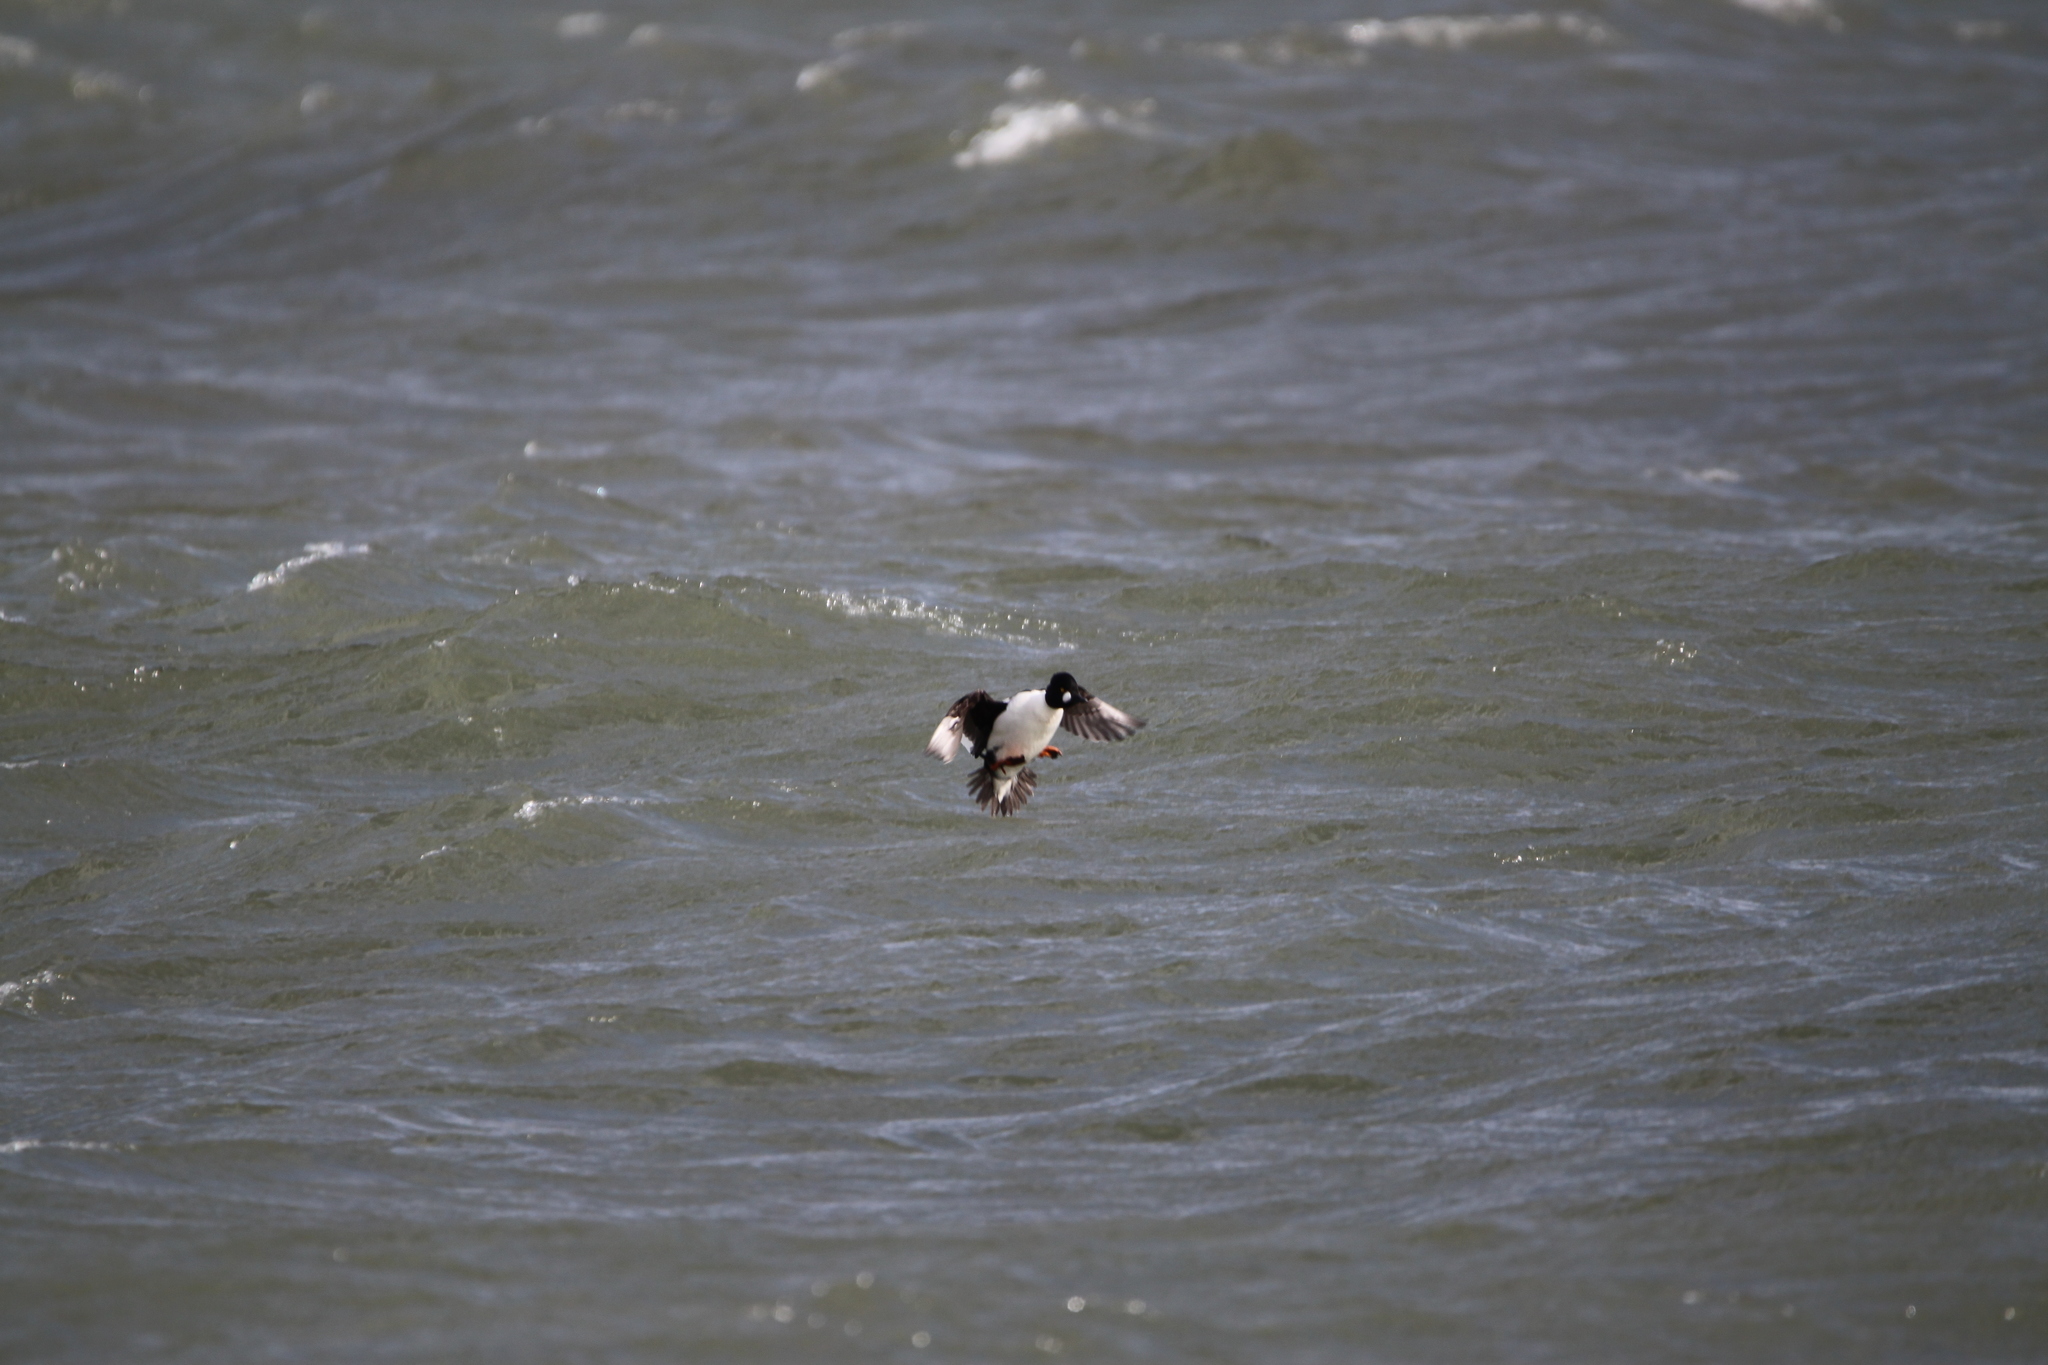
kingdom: Animalia
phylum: Chordata
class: Aves
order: Anseriformes
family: Anatidae
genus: Bucephala
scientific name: Bucephala clangula
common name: Common goldeneye
